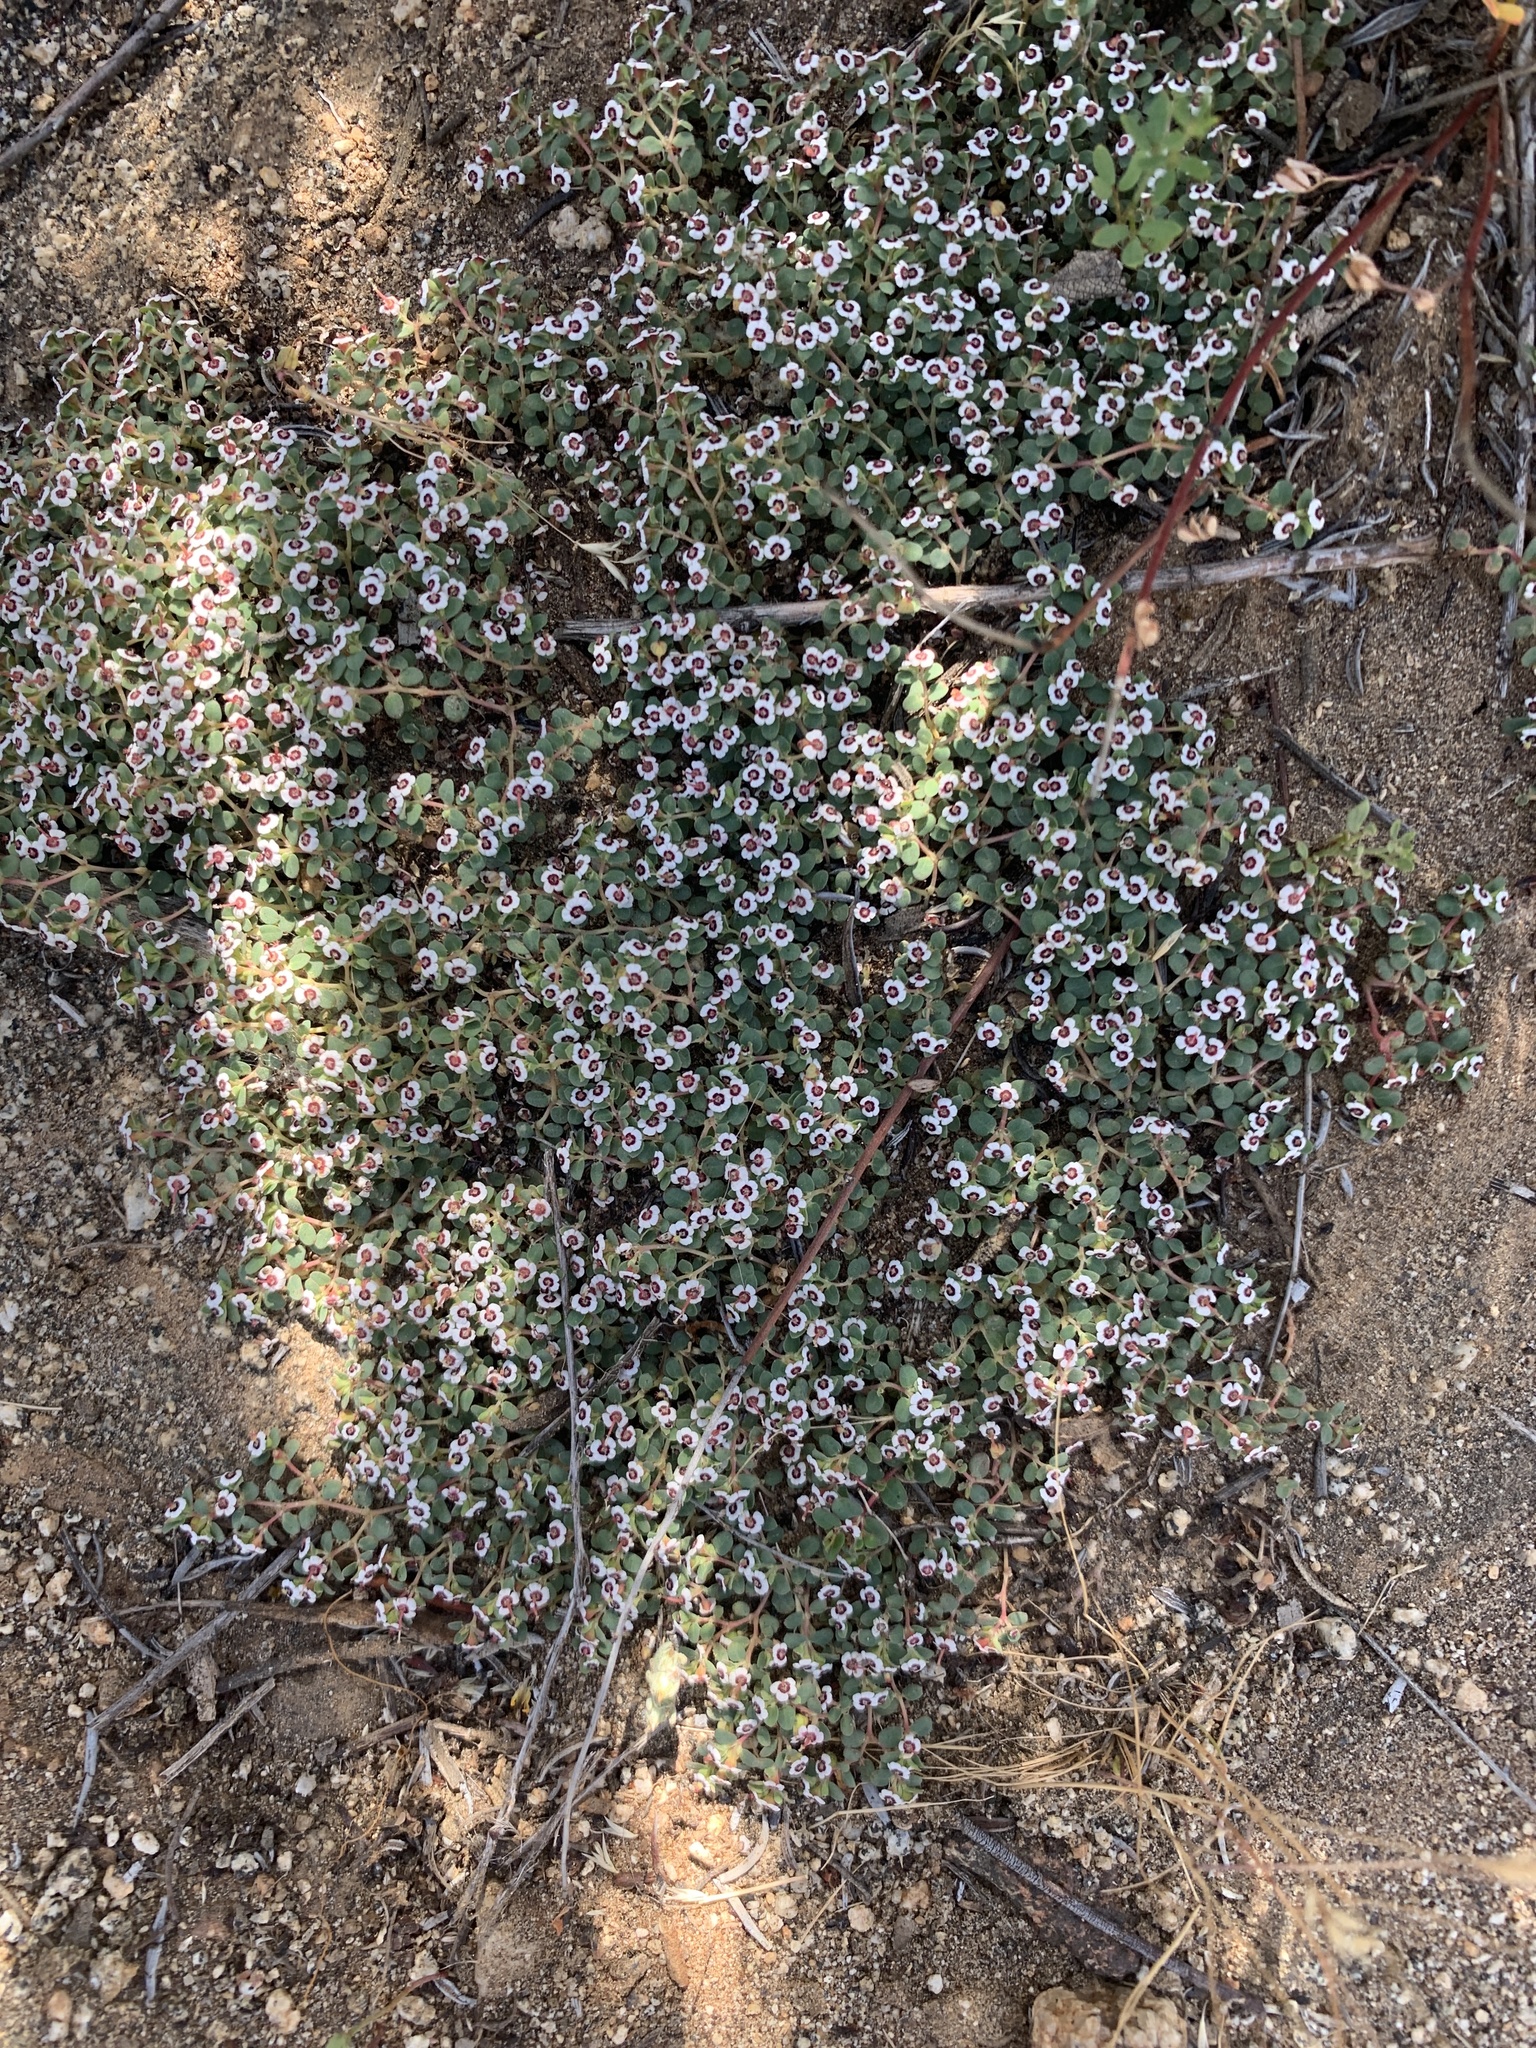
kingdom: Plantae
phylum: Tracheophyta
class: Magnoliopsida
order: Malpighiales
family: Euphorbiaceae
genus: Euphorbia
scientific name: Euphorbia polycarpa
